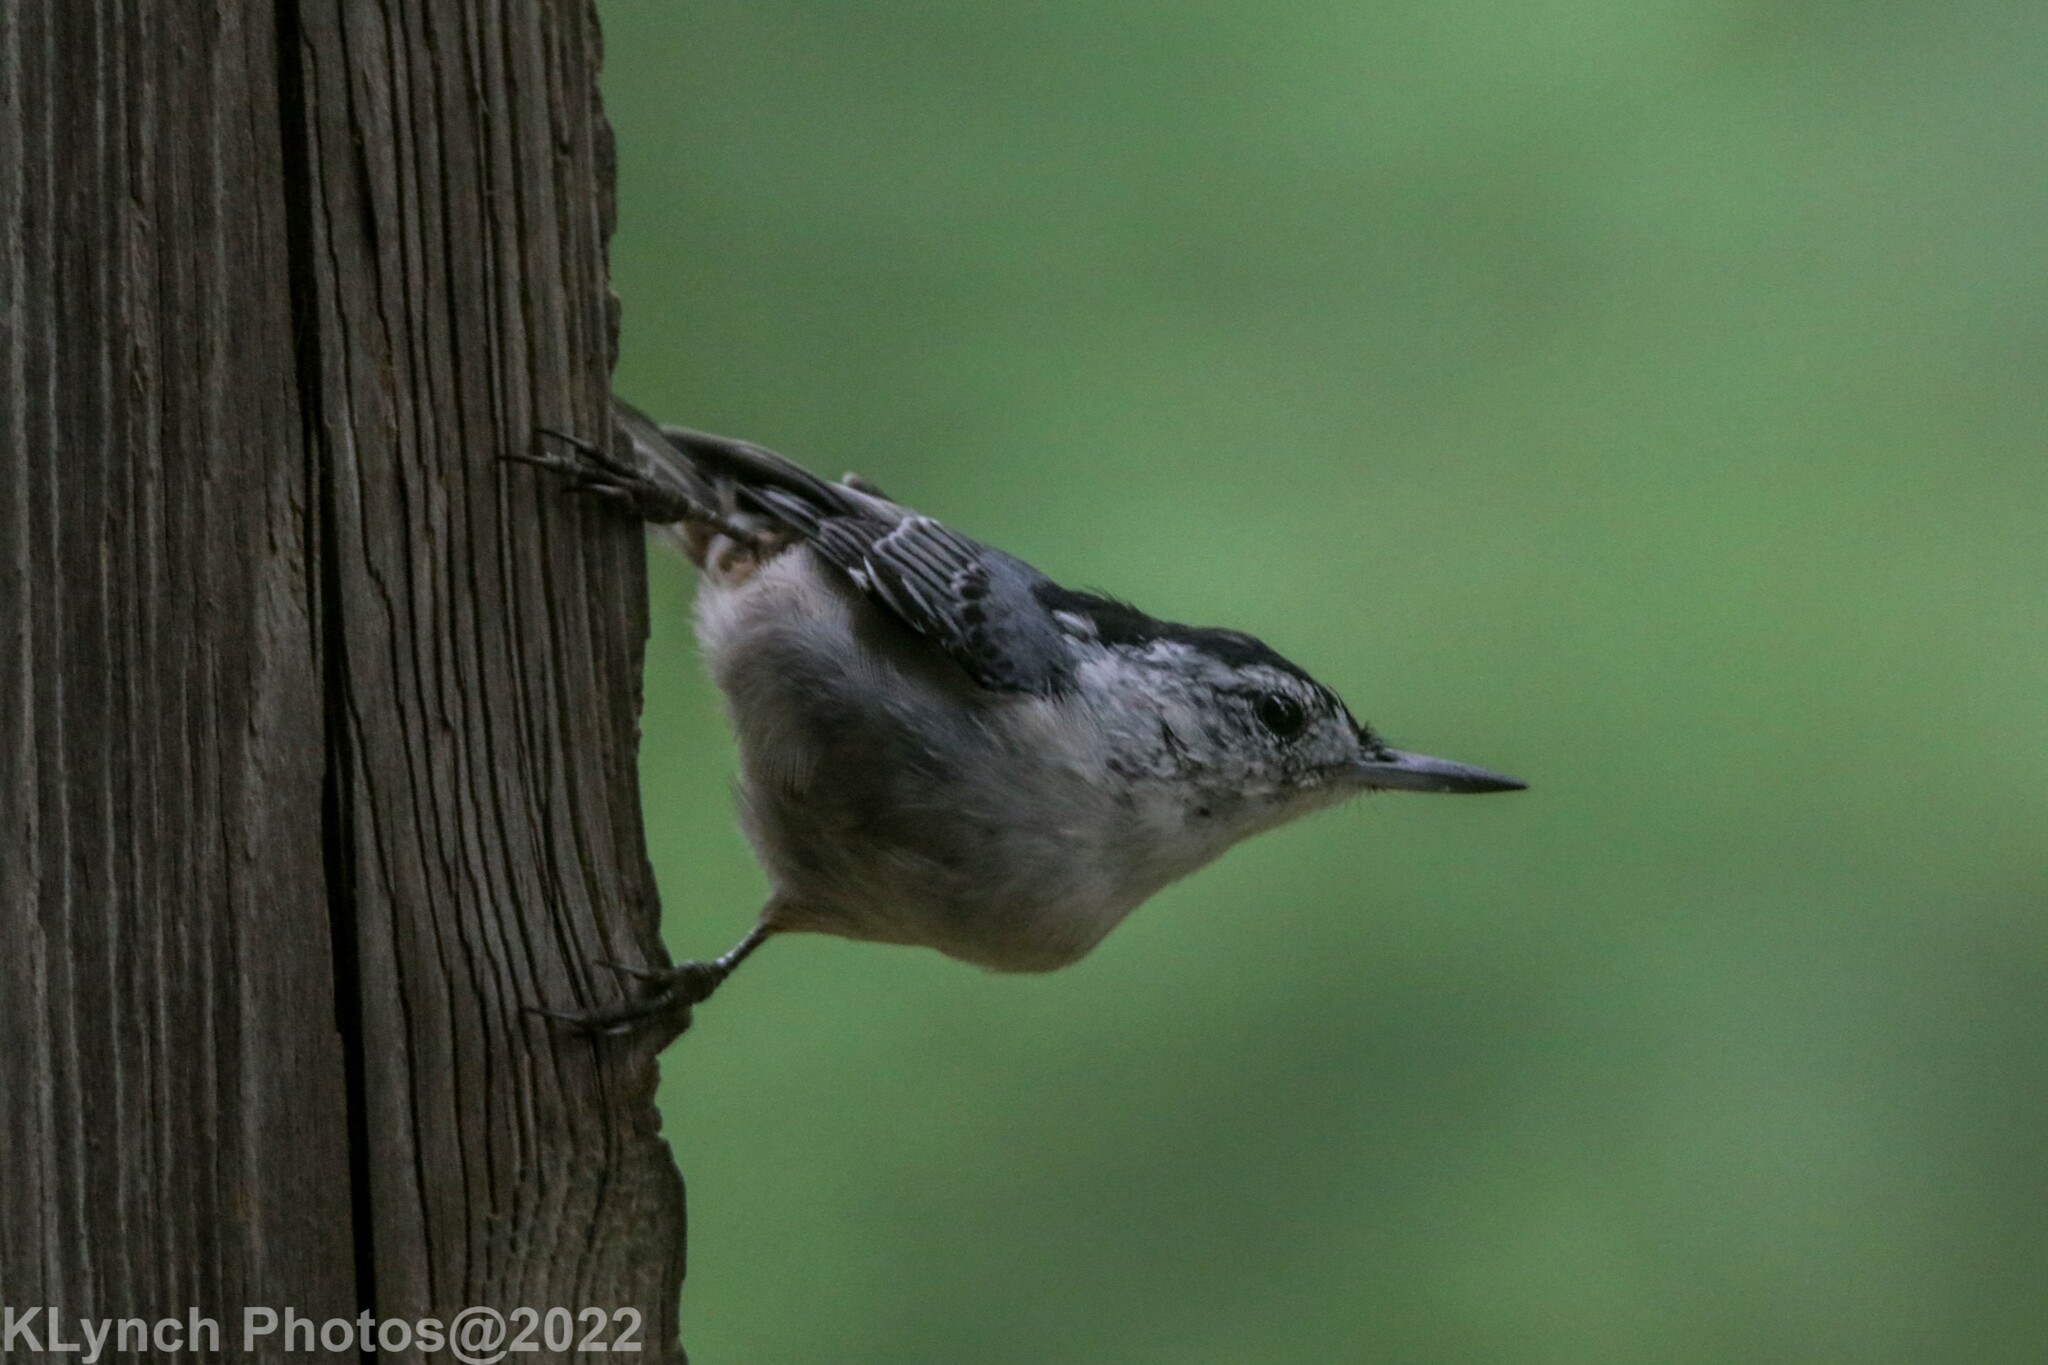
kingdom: Animalia
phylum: Chordata
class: Aves
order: Passeriformes
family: Sittidae
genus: Sitta
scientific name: Sitta carolinensis
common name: White-breasted nuthatch
